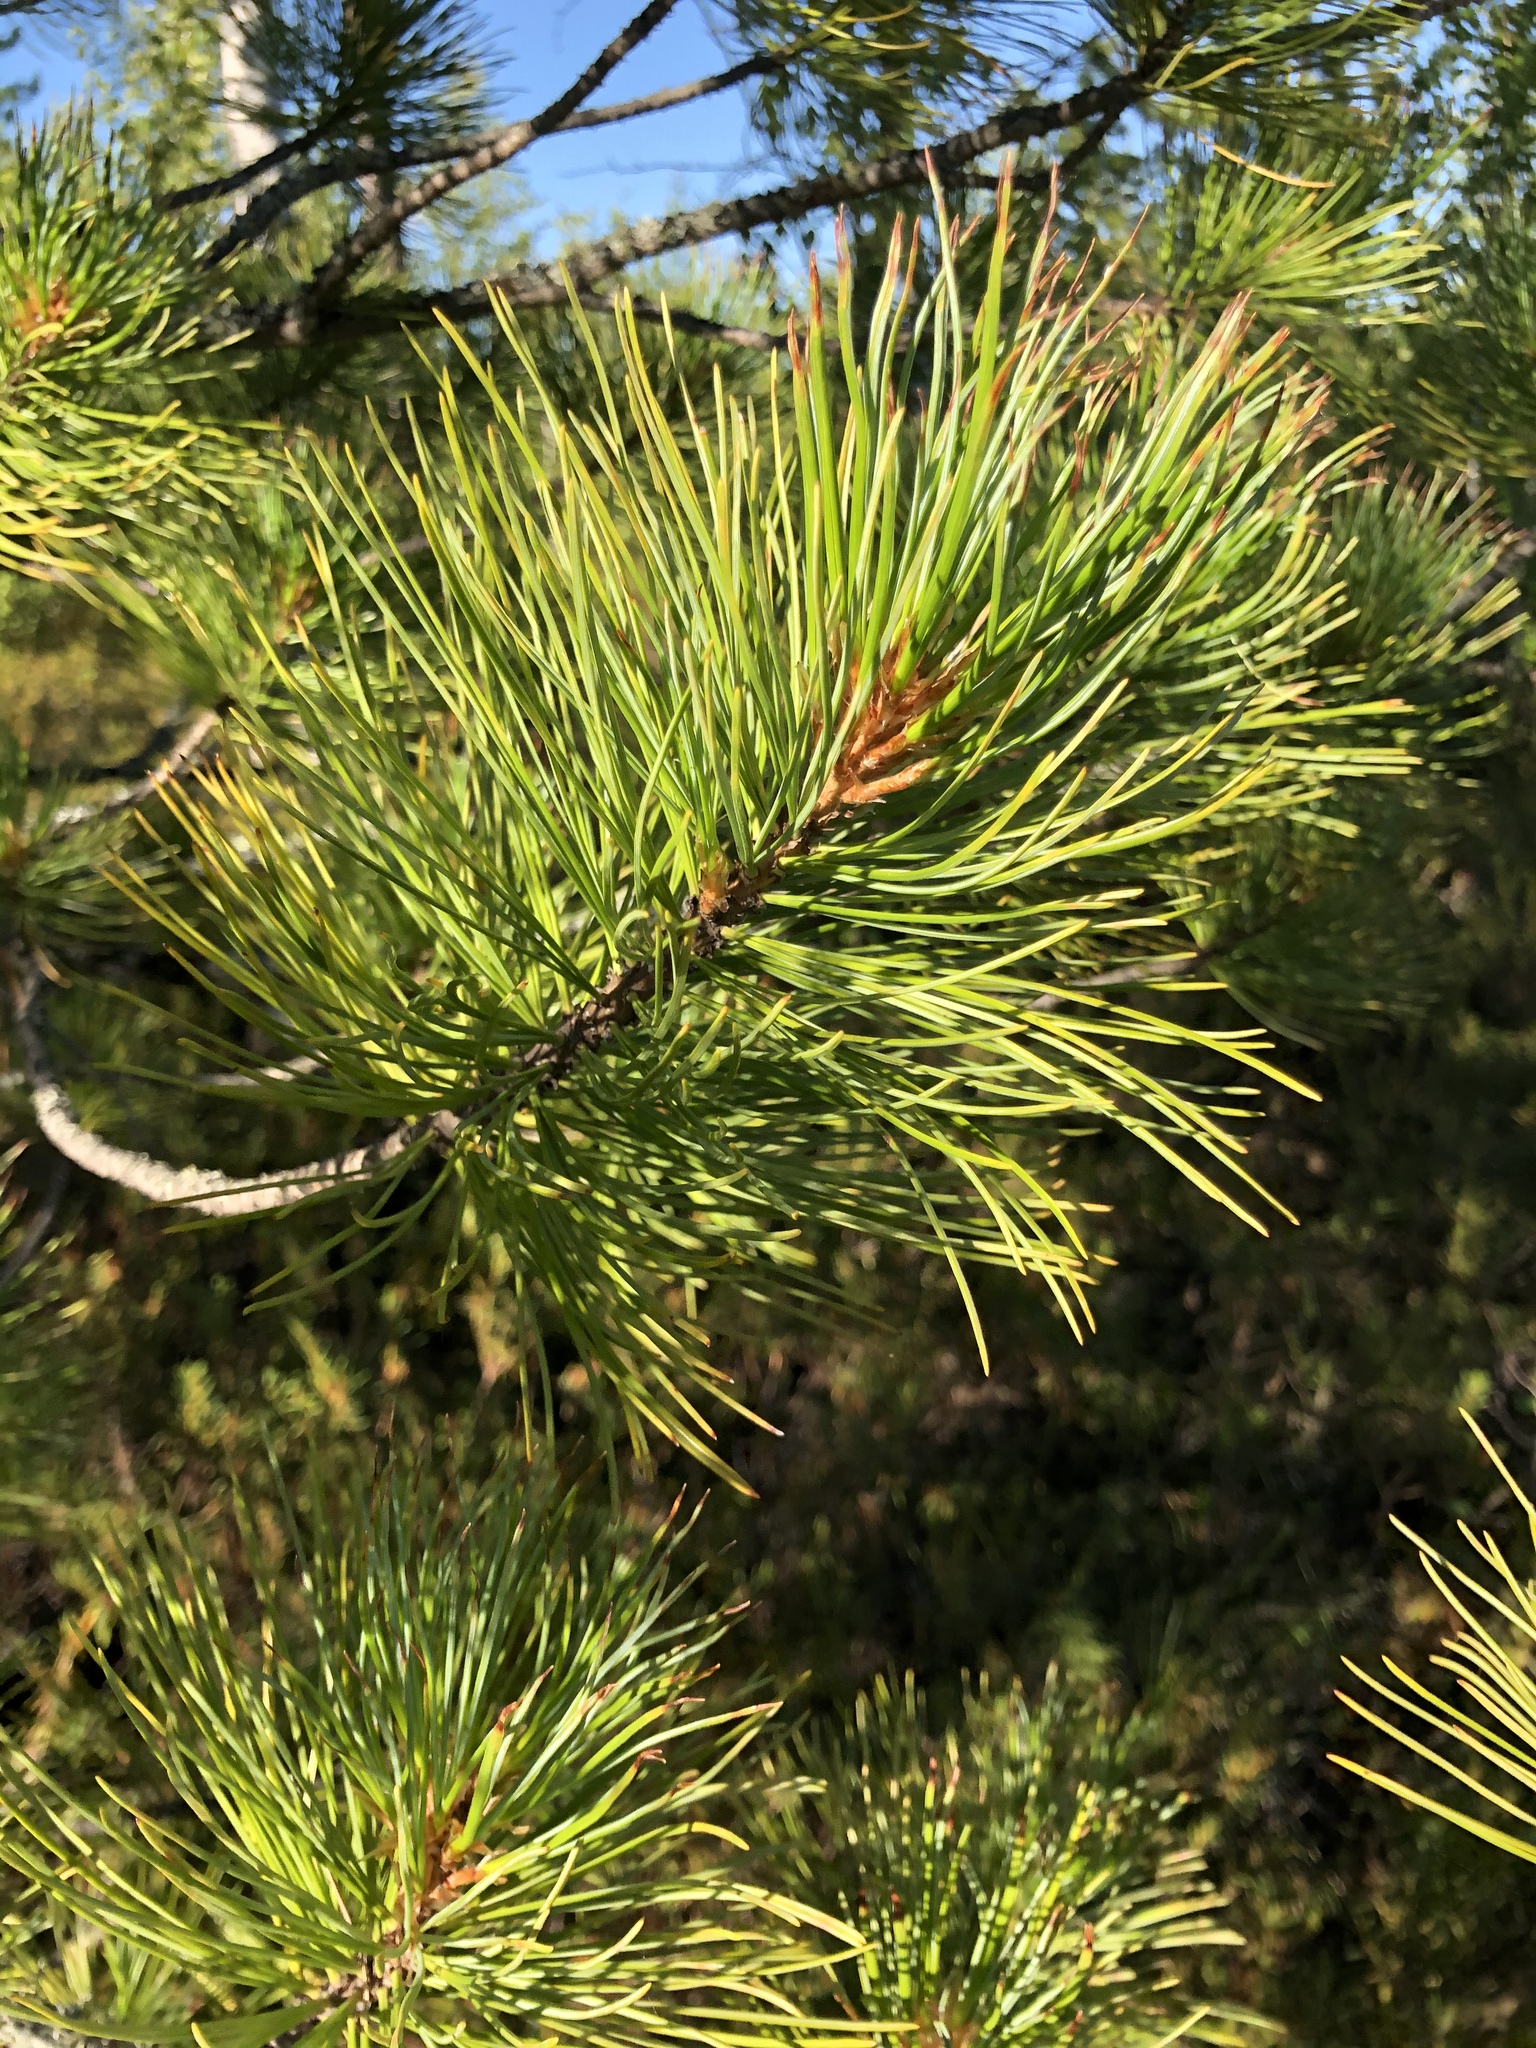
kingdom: Plantae
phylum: Tracheophyta
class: Pinopsida
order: Pinales
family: Pinaceae
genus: Pinus
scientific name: Pinus sibirica
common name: Siberian pine
